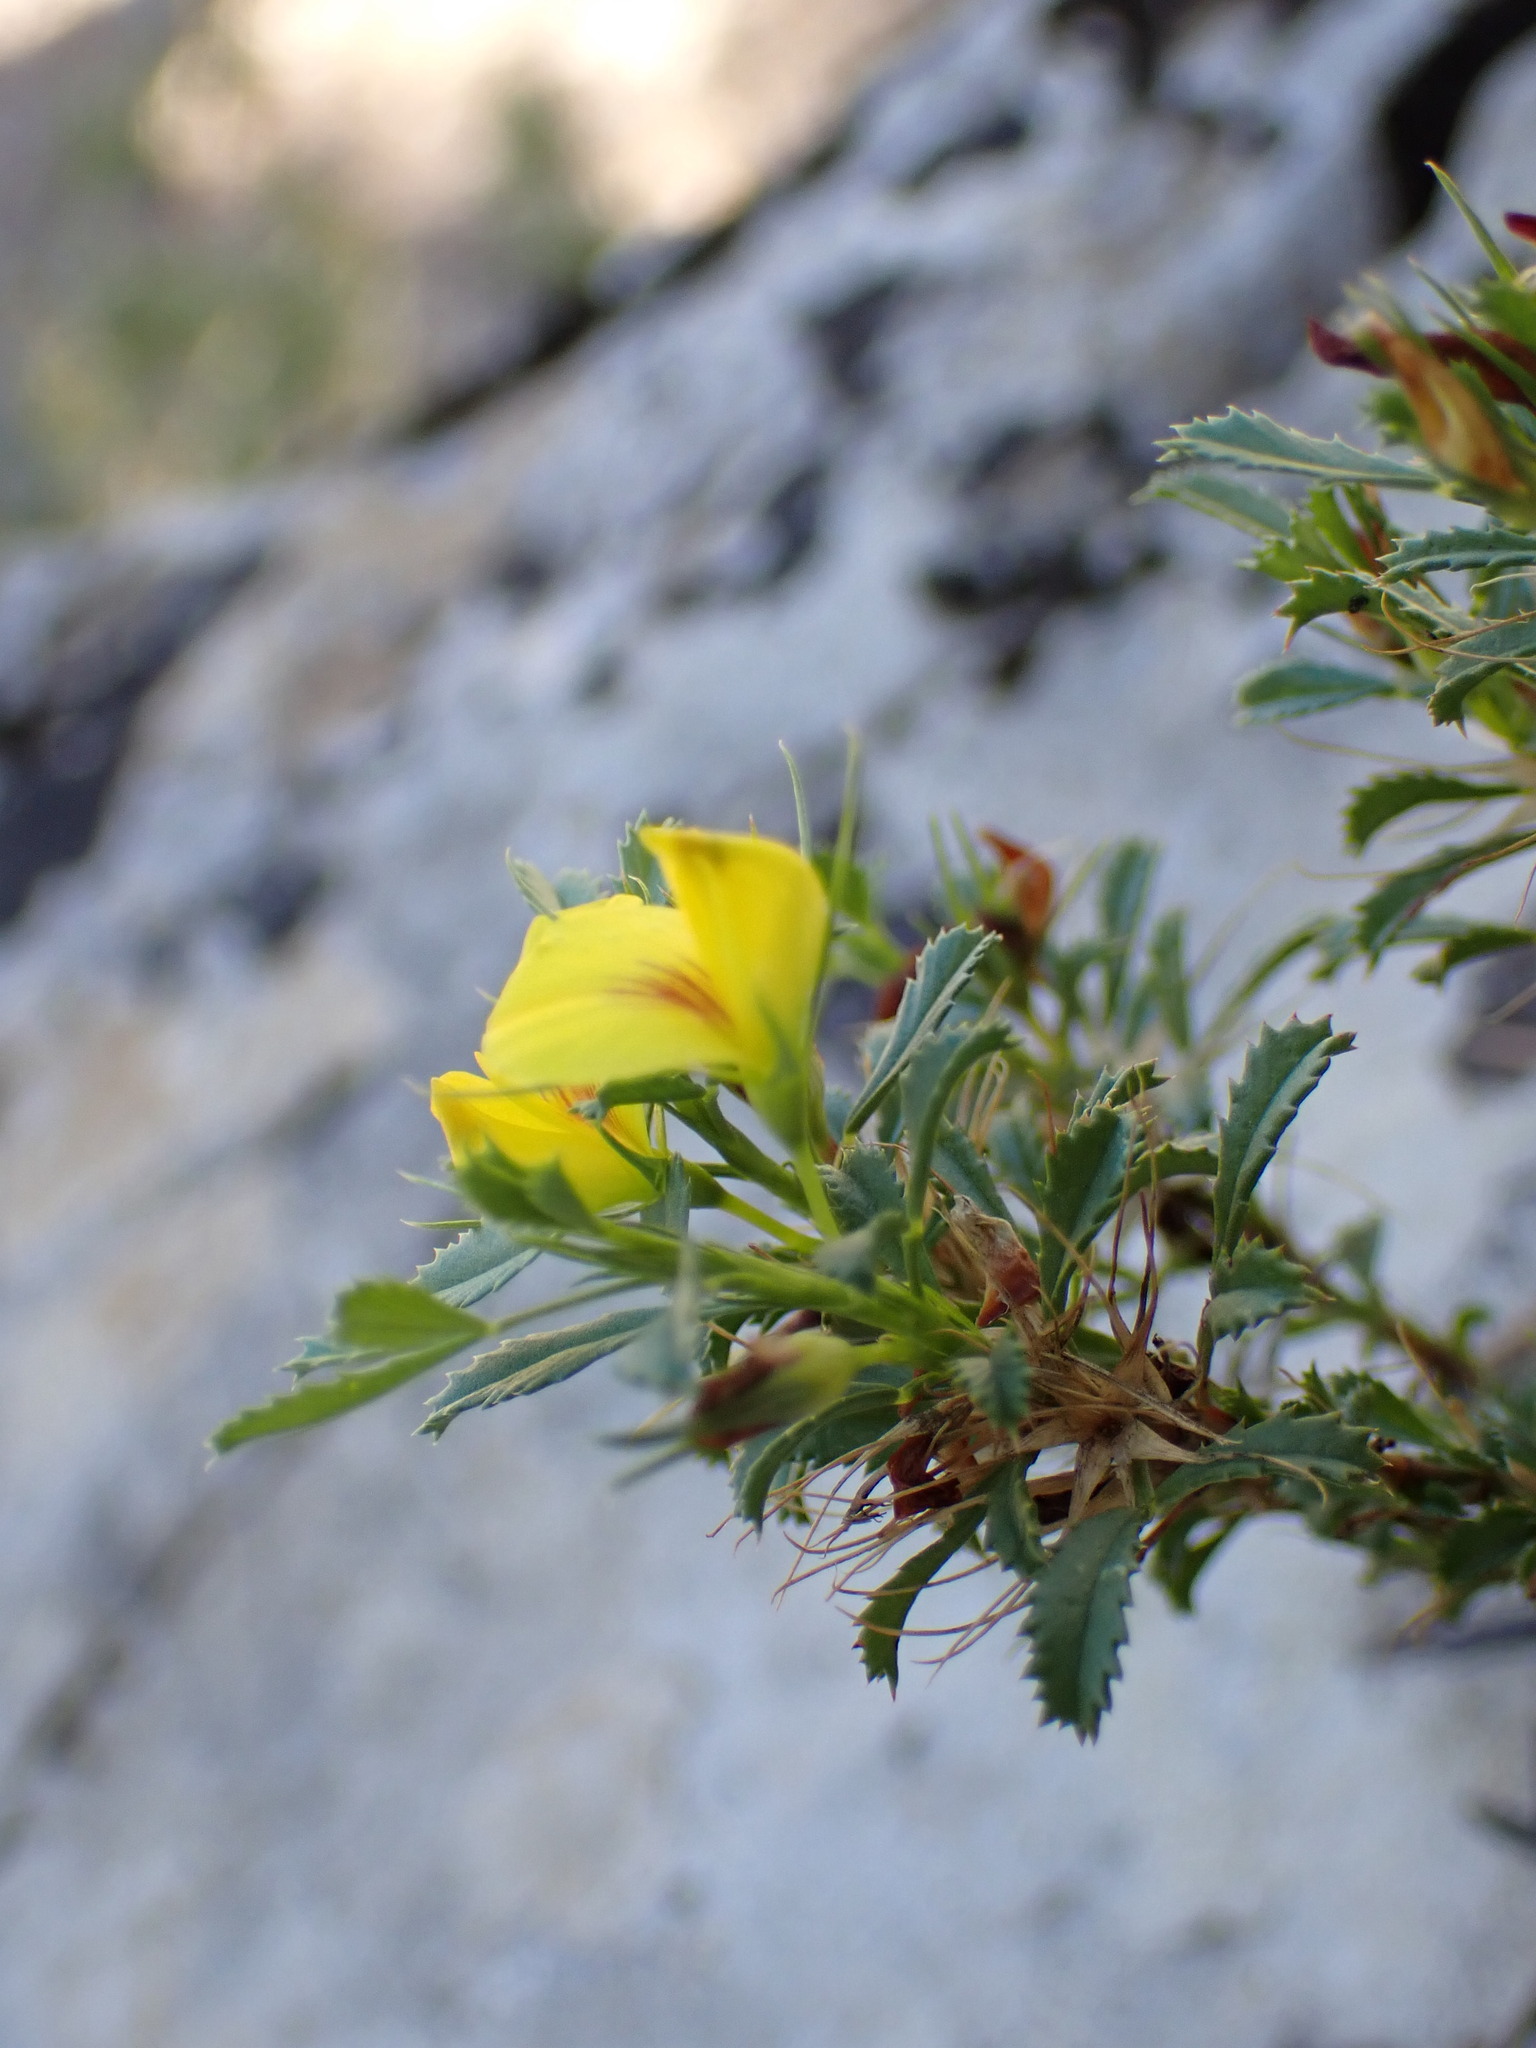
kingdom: Plantae
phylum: Tracheophyta
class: Magnoliopsida
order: Fabales
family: Fabaceae
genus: Ononis
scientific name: Ononis minutissima
